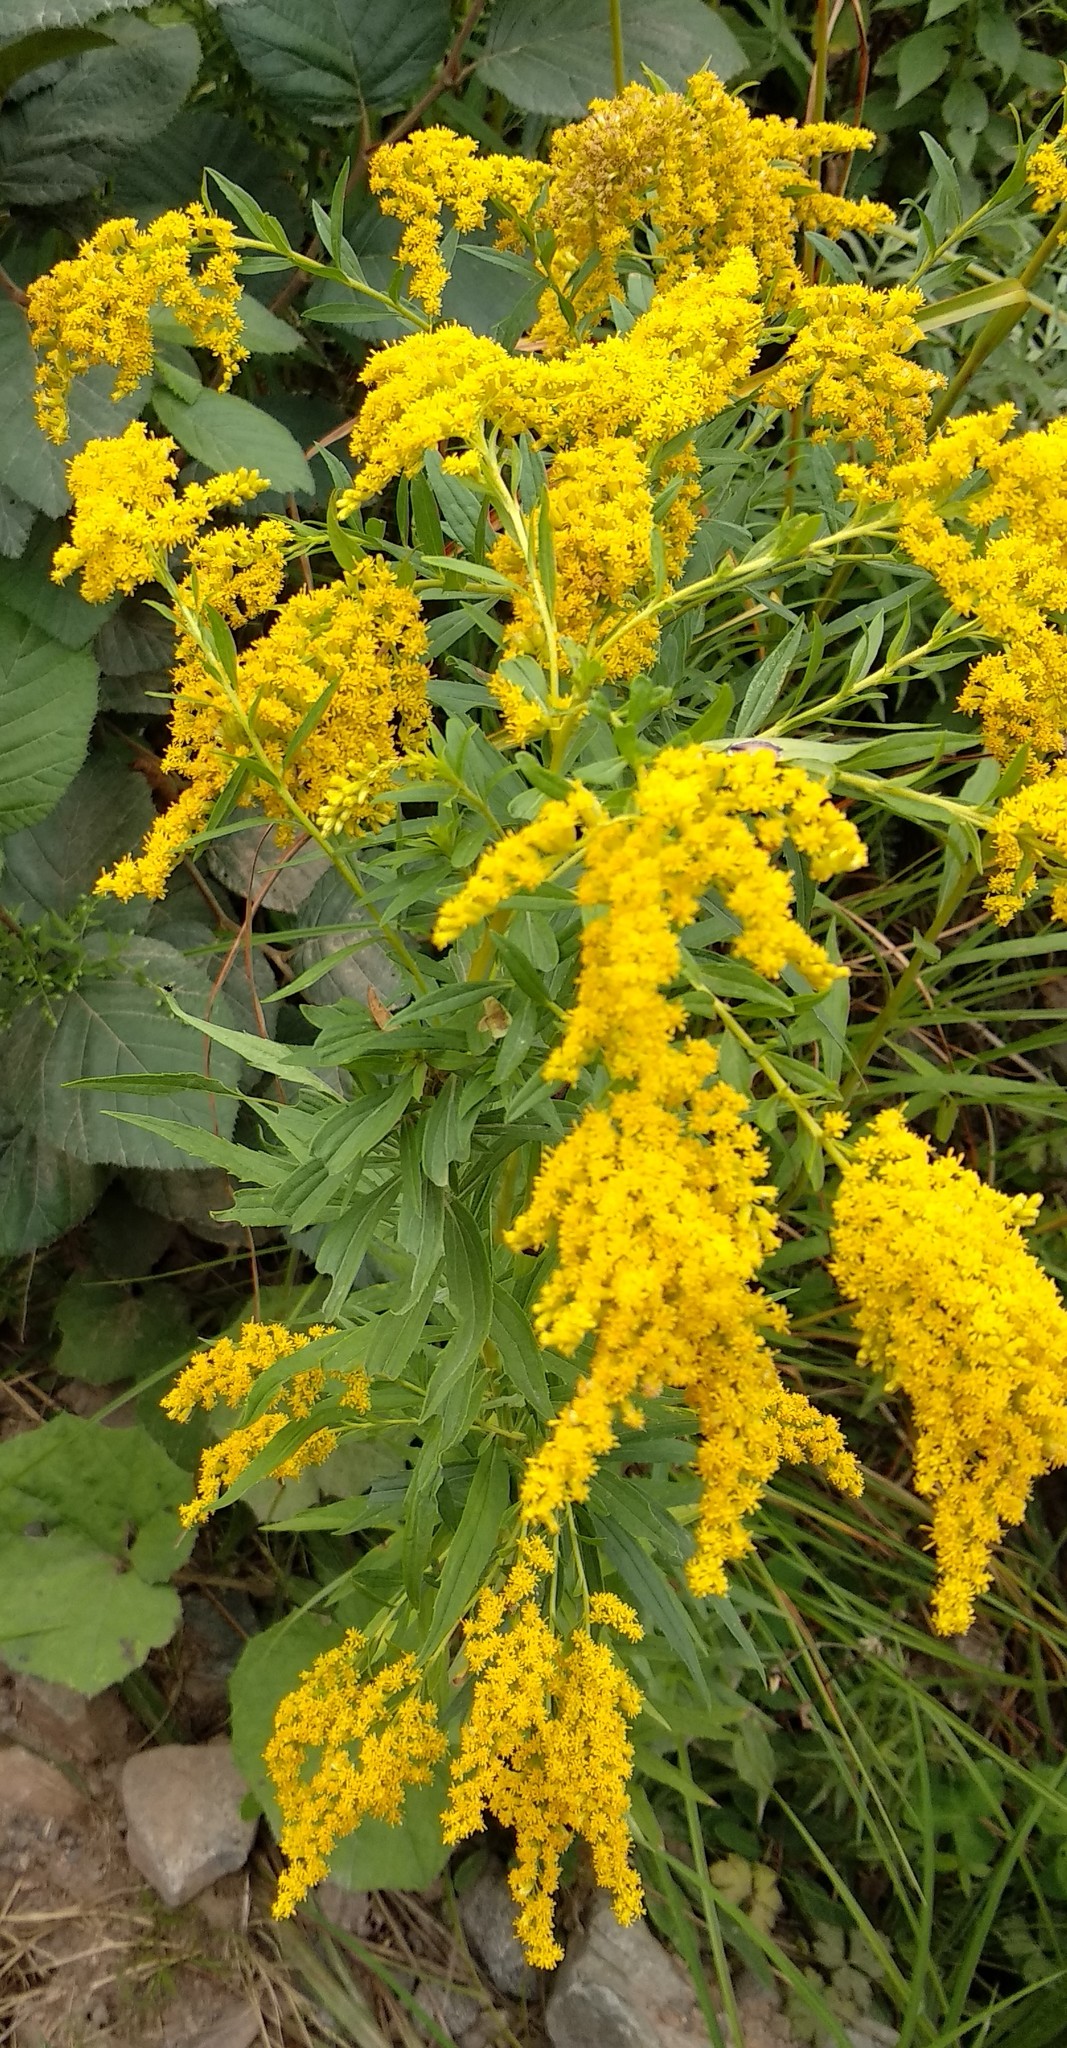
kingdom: Plantae
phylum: Tracheophyta
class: Magnoliopsida
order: Asterales
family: Asteraceae
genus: Solidago
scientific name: Solidago canadensis
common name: Canada goldenrod
